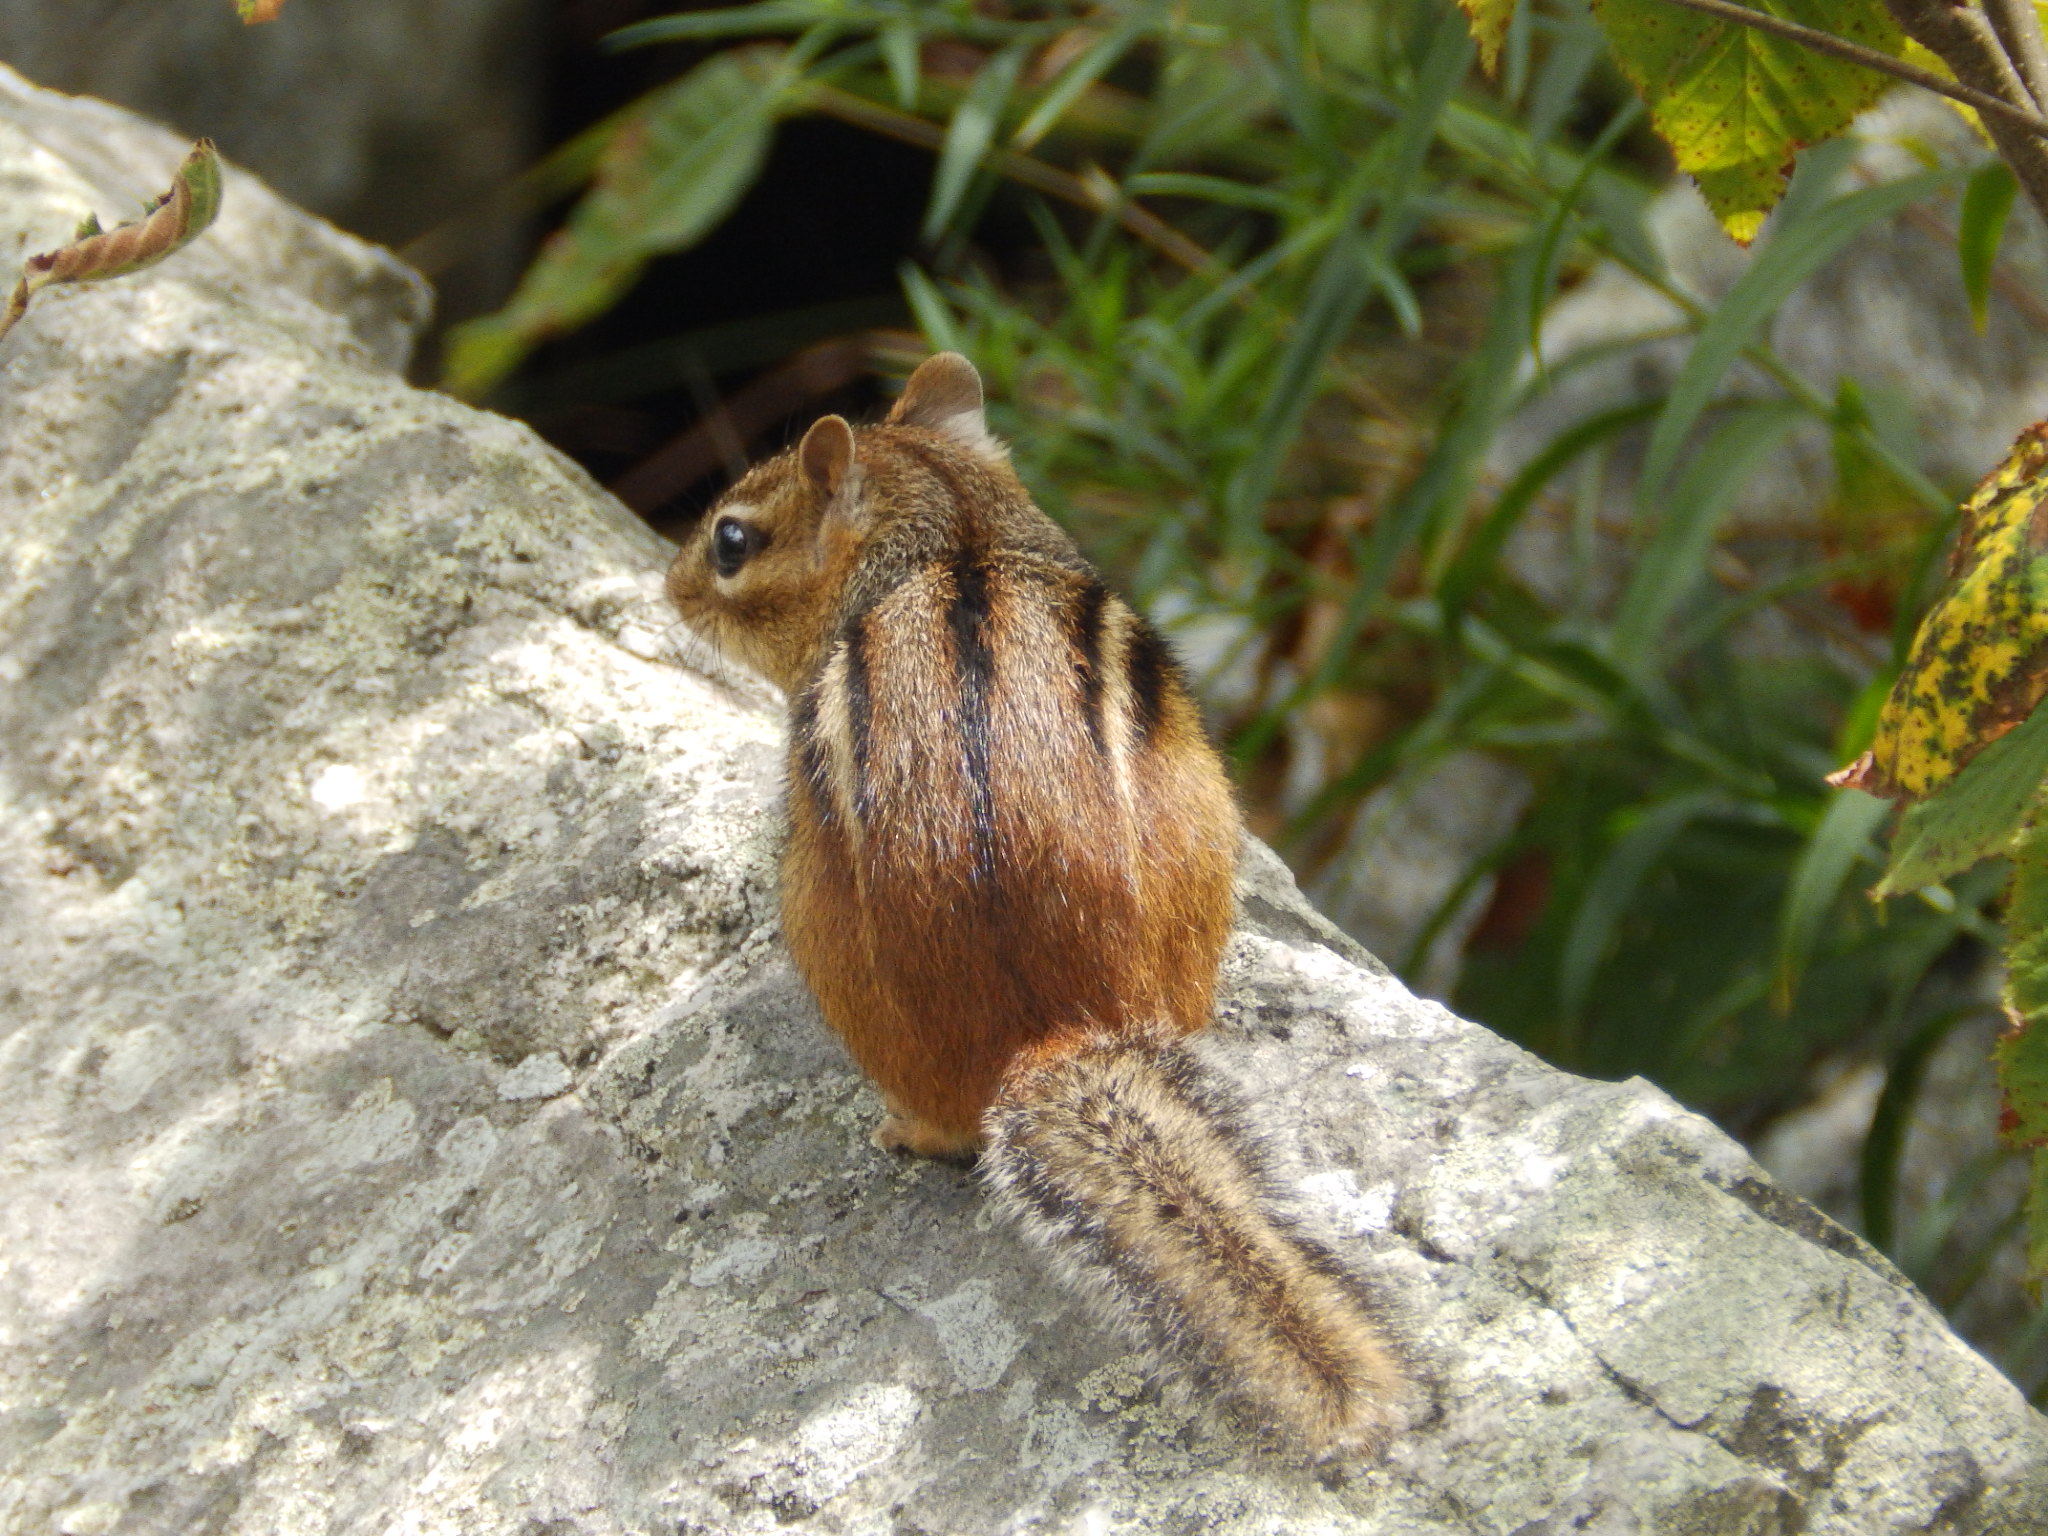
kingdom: Animalia
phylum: Chordata
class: Mammalia
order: Rodentia
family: Sciuridae
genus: Tamias
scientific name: Tamias striatus
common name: Eastern chipmunk
